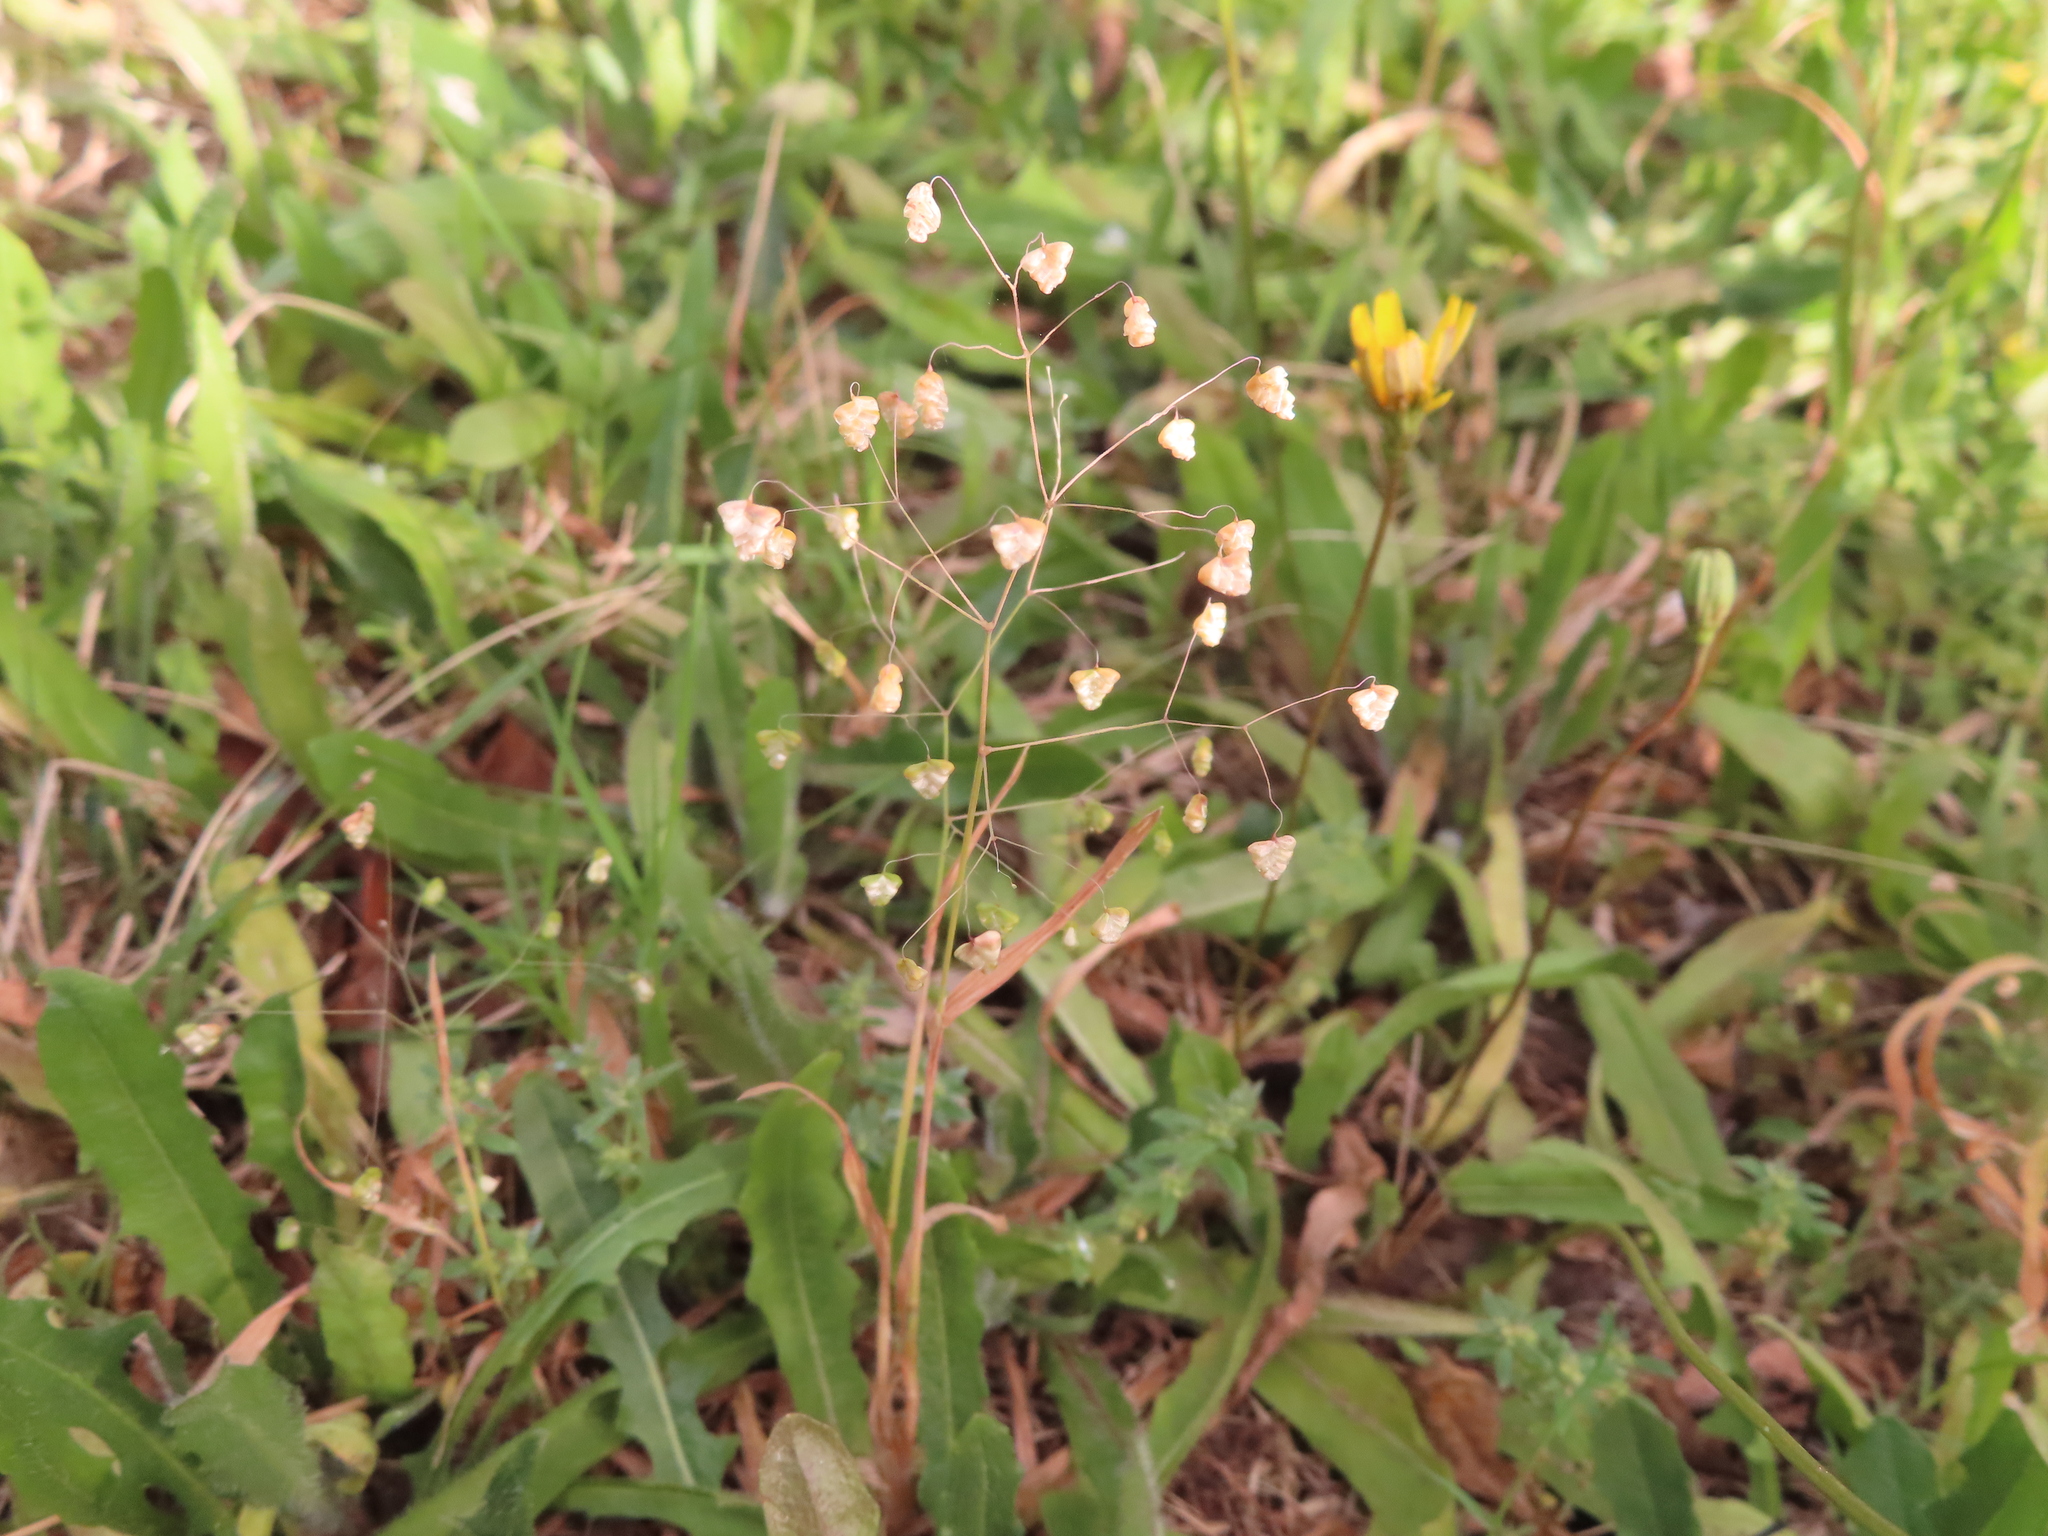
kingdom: Plantae
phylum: Tracheophyta
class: Liliopsida
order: Poales
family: Poaceae
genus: Briza
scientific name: Briza minor
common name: Lesser quaking-grass
